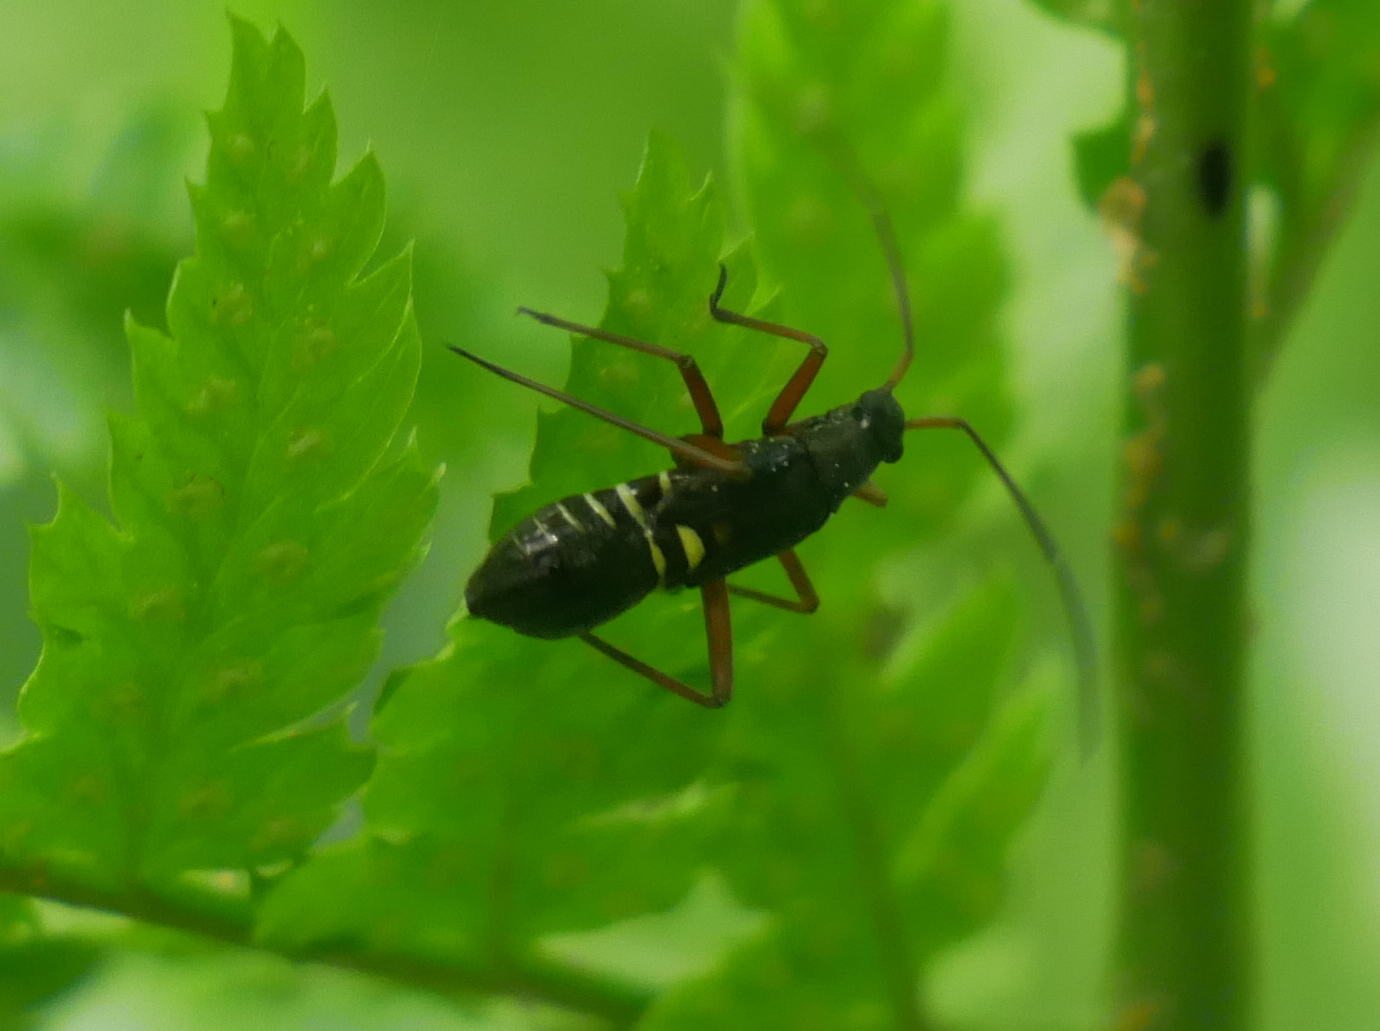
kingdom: Animalia
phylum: Arthropoda
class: Insecta
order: Hemiptera
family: Miridae
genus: Miris
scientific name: Miris striatus
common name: Fine streaked bugkin
